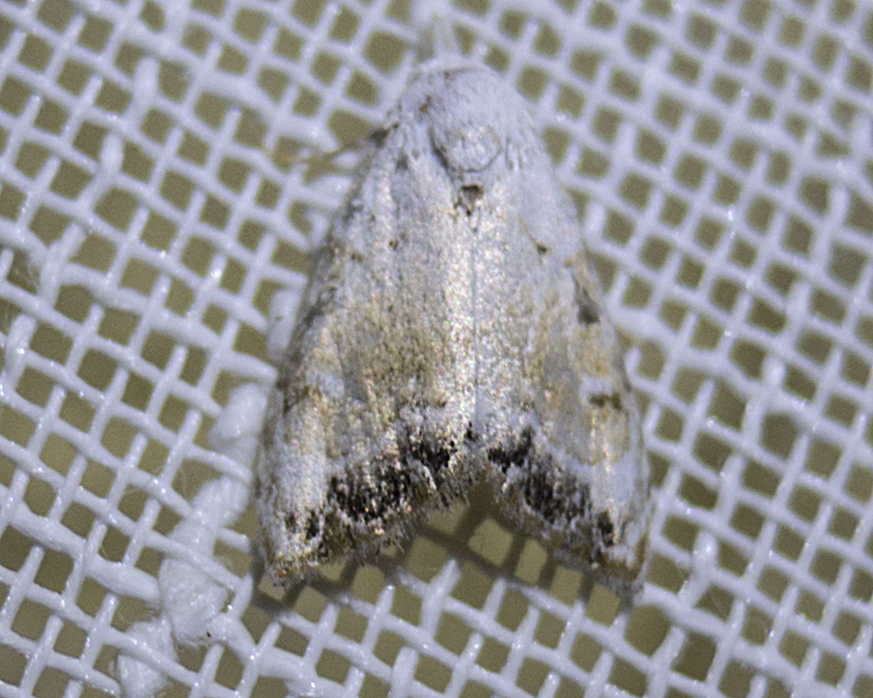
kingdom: Animalia
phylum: Arthropoda
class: Insecta
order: Lepidoptera
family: Nolidae
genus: Nola
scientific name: Nola chlamitulalis
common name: Jersey black arches
